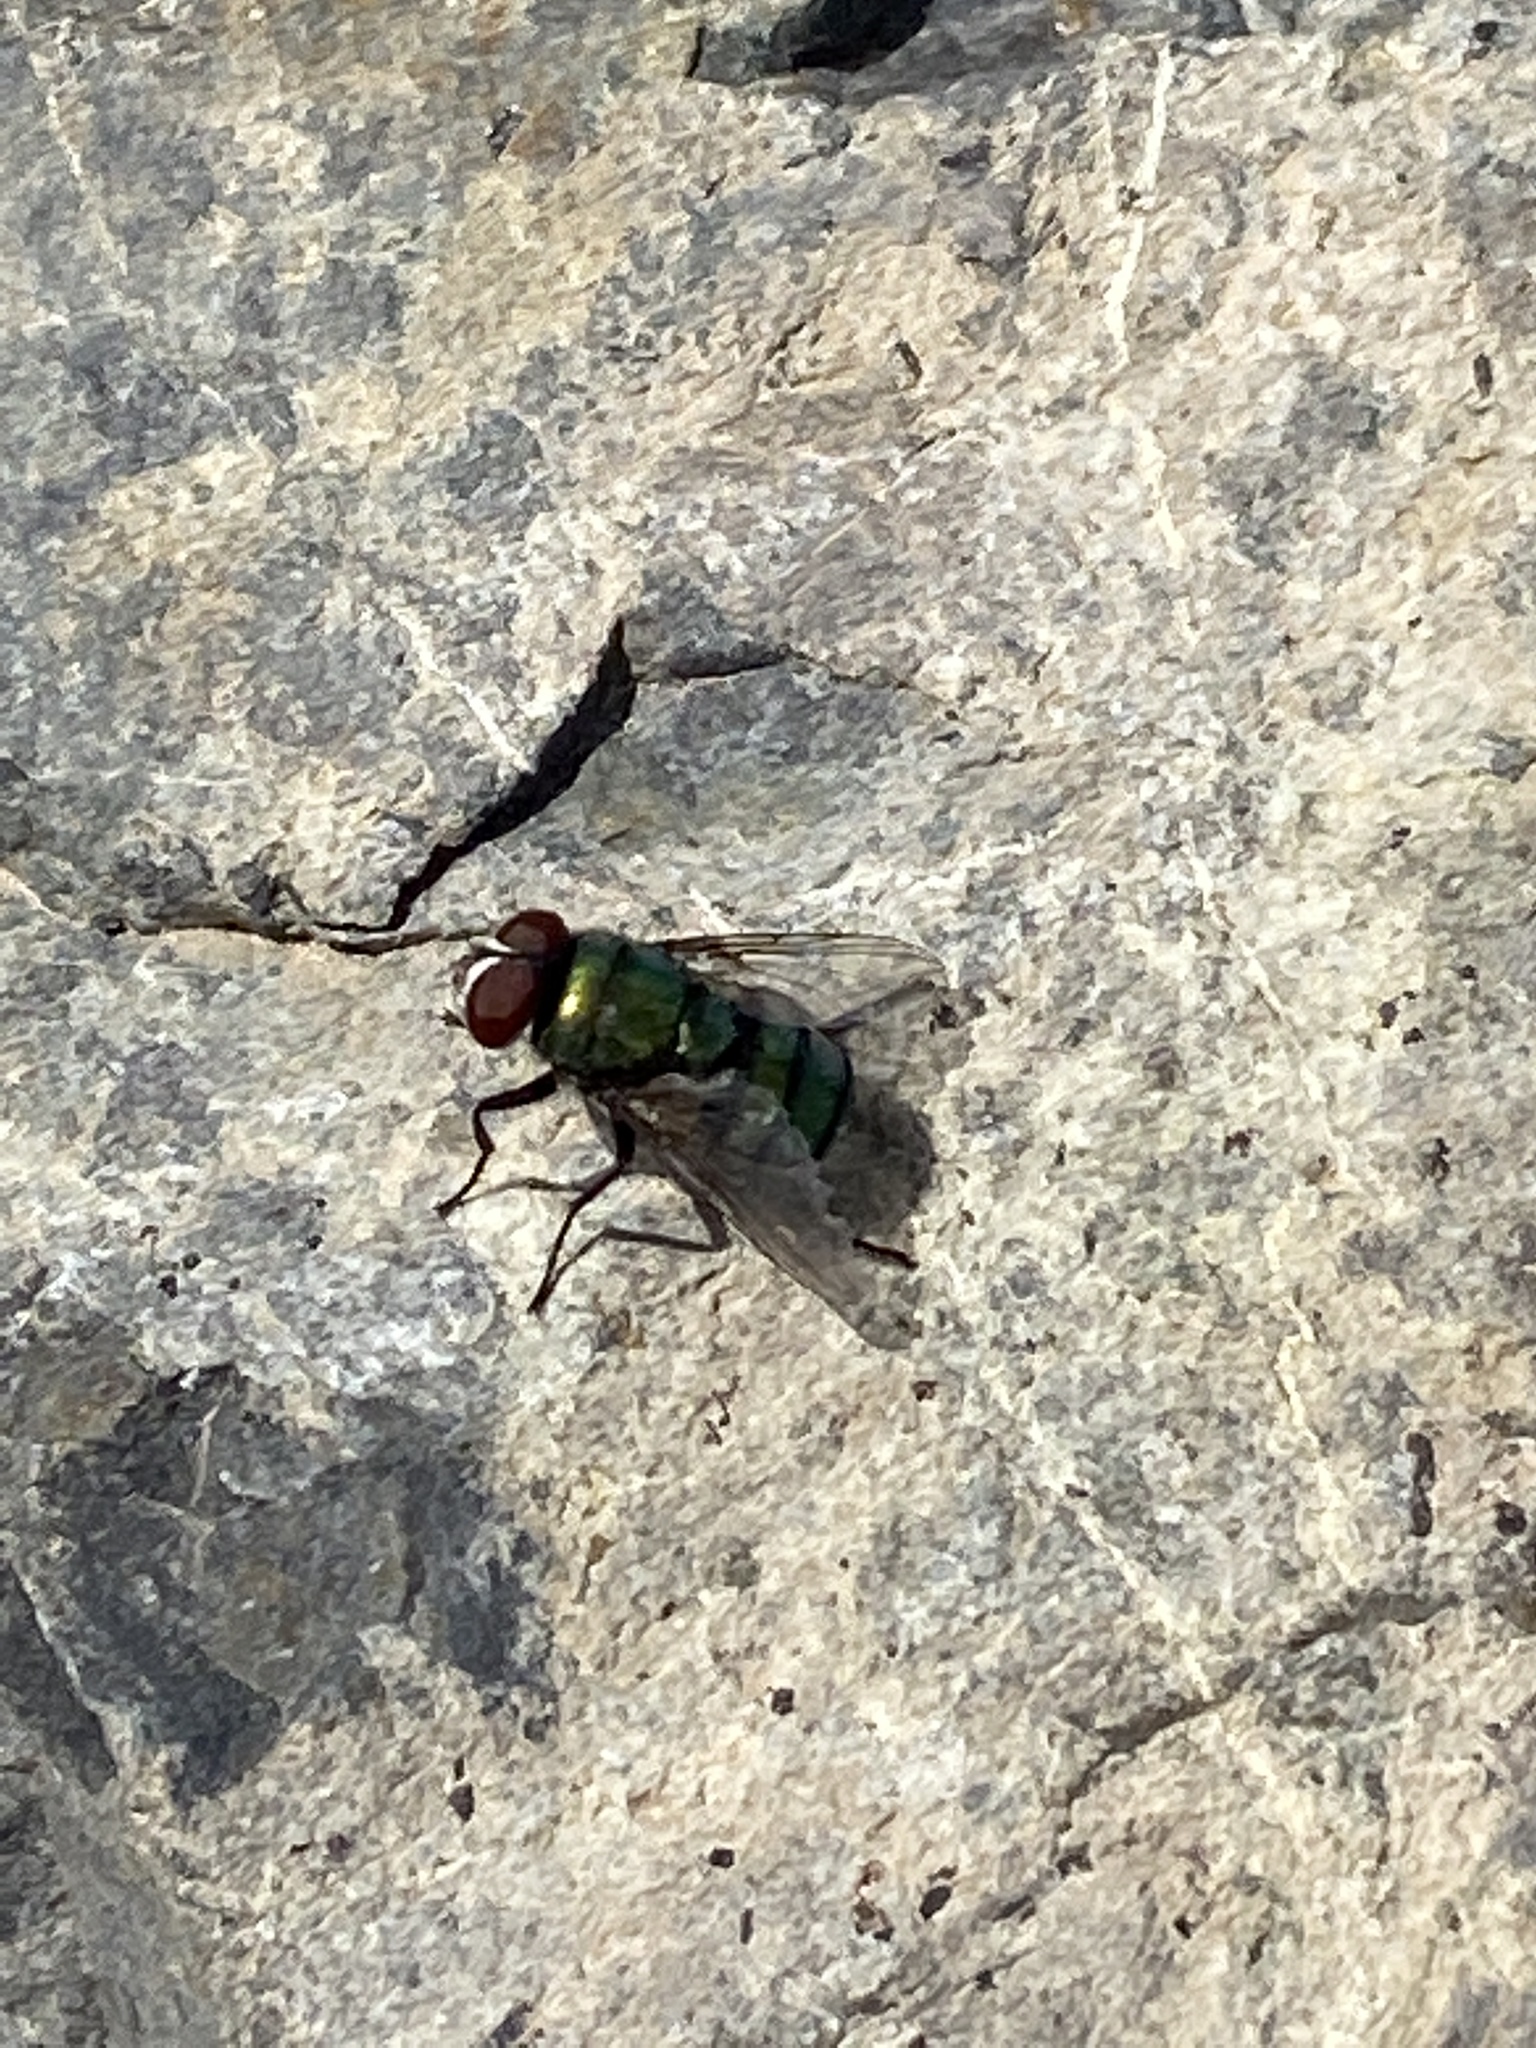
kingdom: Animalia
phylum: Arthropoda
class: Insecta
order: Diptera
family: Calliphoridae
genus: Chrysomya
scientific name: Chrysomya albiceps
